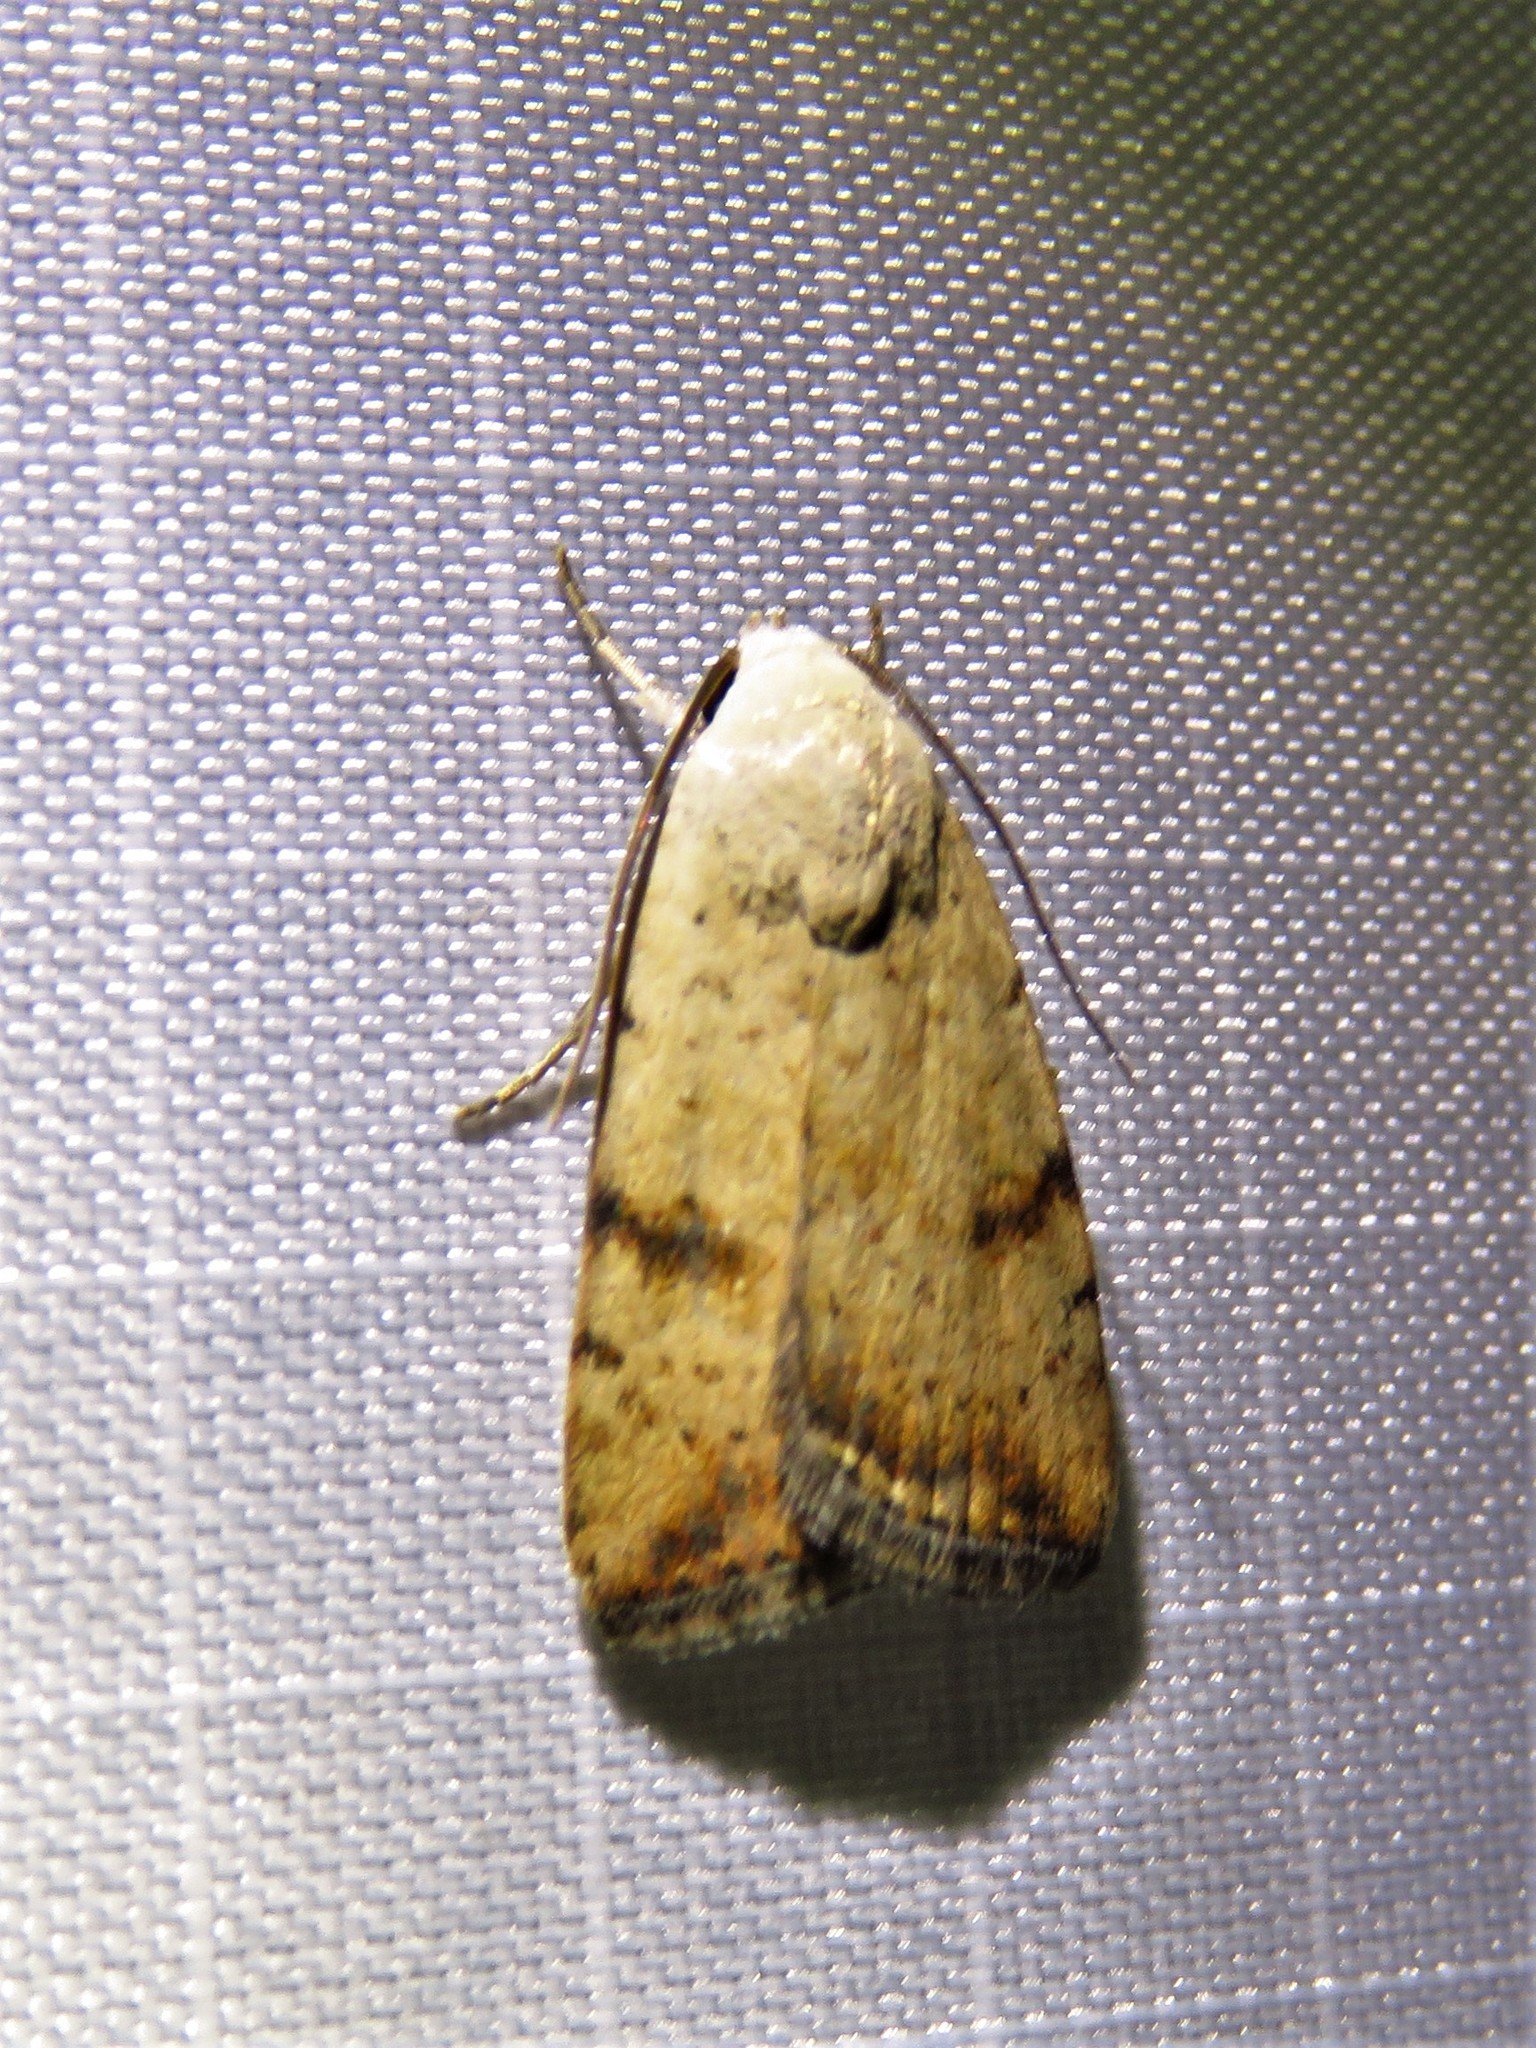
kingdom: Animalia
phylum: Arthropoda
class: Insecta
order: Lepidoptera
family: Noctuidae
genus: Micrathetis
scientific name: Micrathetis triplex
